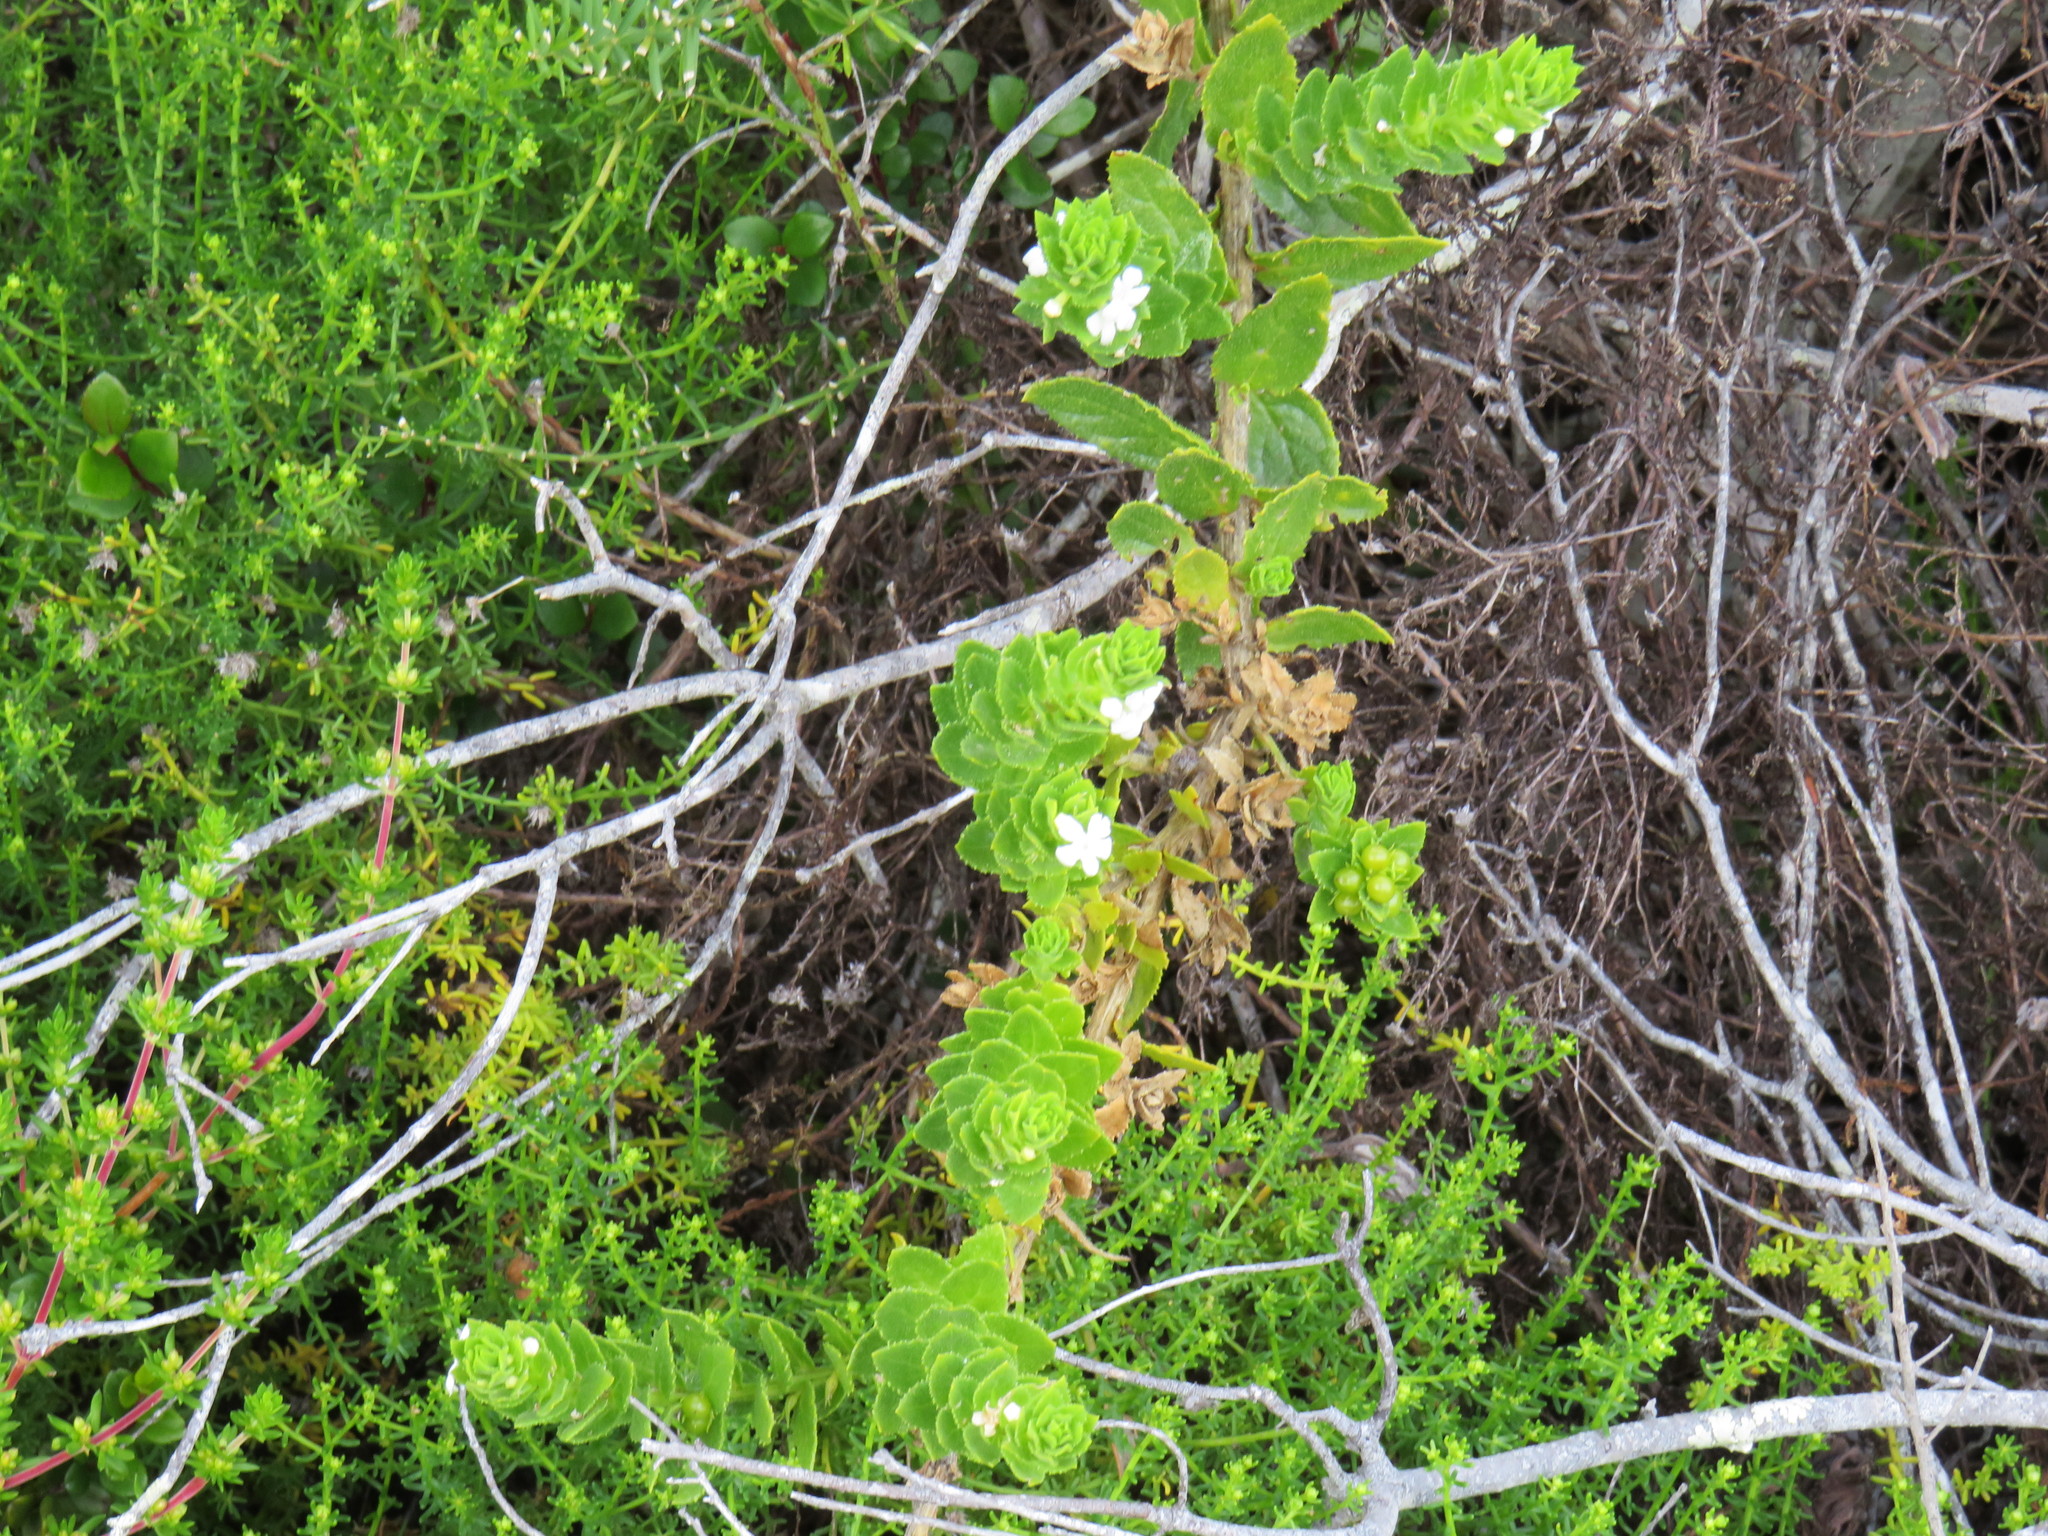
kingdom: Plantae
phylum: Tracheophyta
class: Magnoliopsida
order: Lamiales
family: Scrophulariaceae
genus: Oftia
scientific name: Oftia africana
